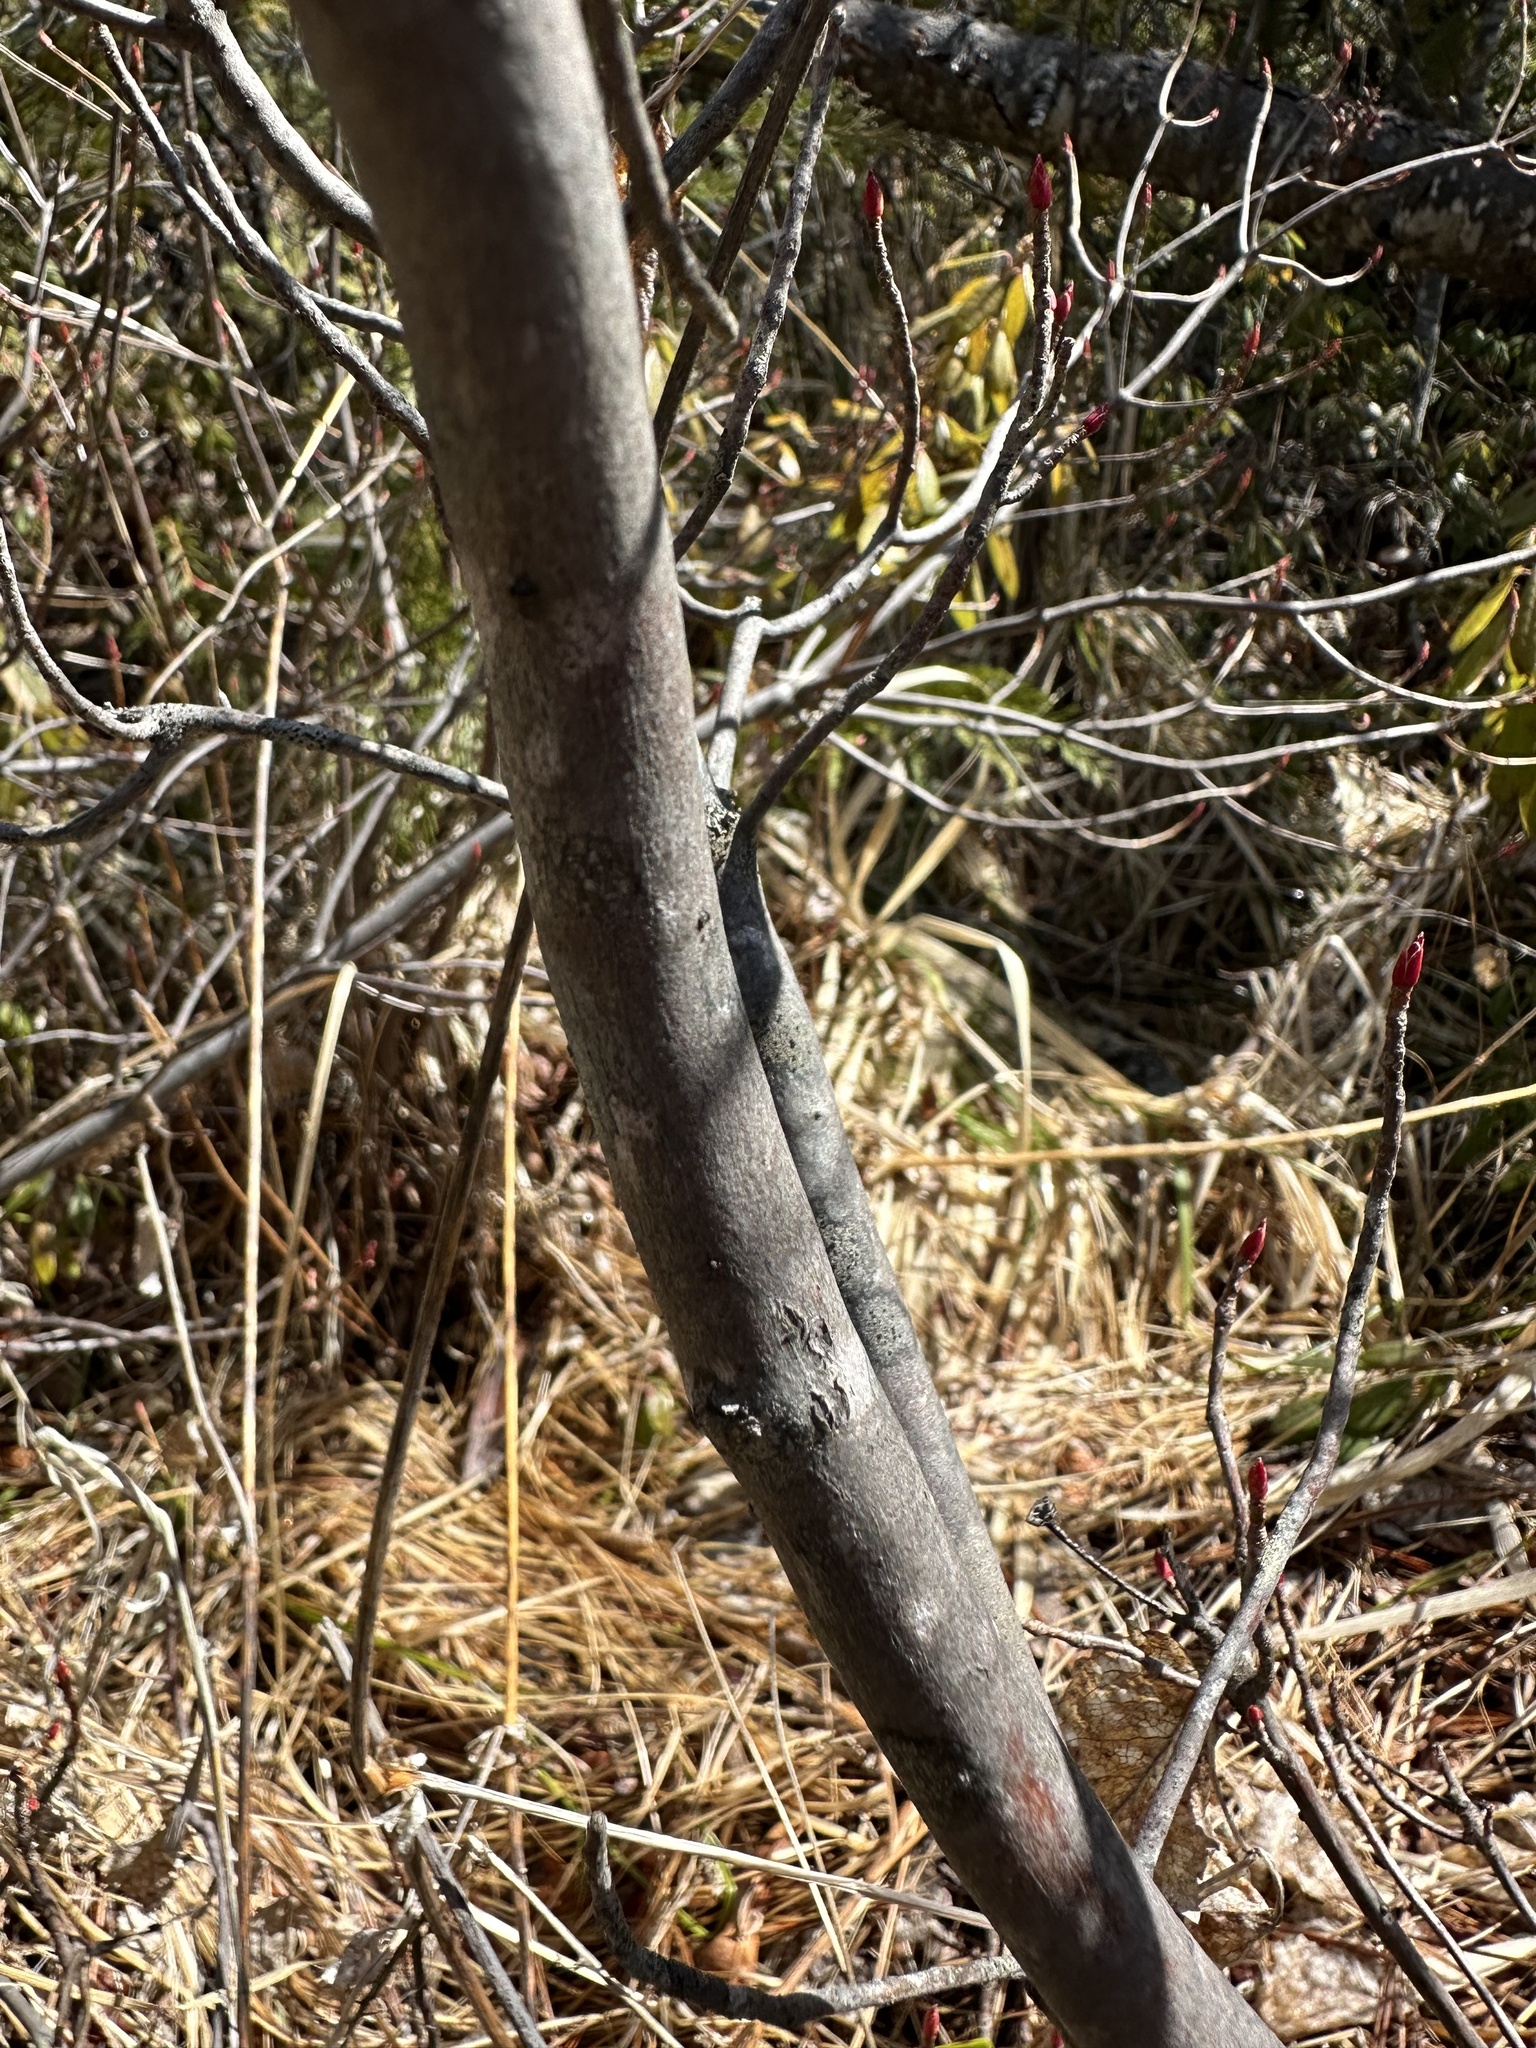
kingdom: Plantae
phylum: Tracheophyta
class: Magnoliopsida
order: Ericales
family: Ericaceae
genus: Rhododendron
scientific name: Rhododendron occidentale
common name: Western azalea
